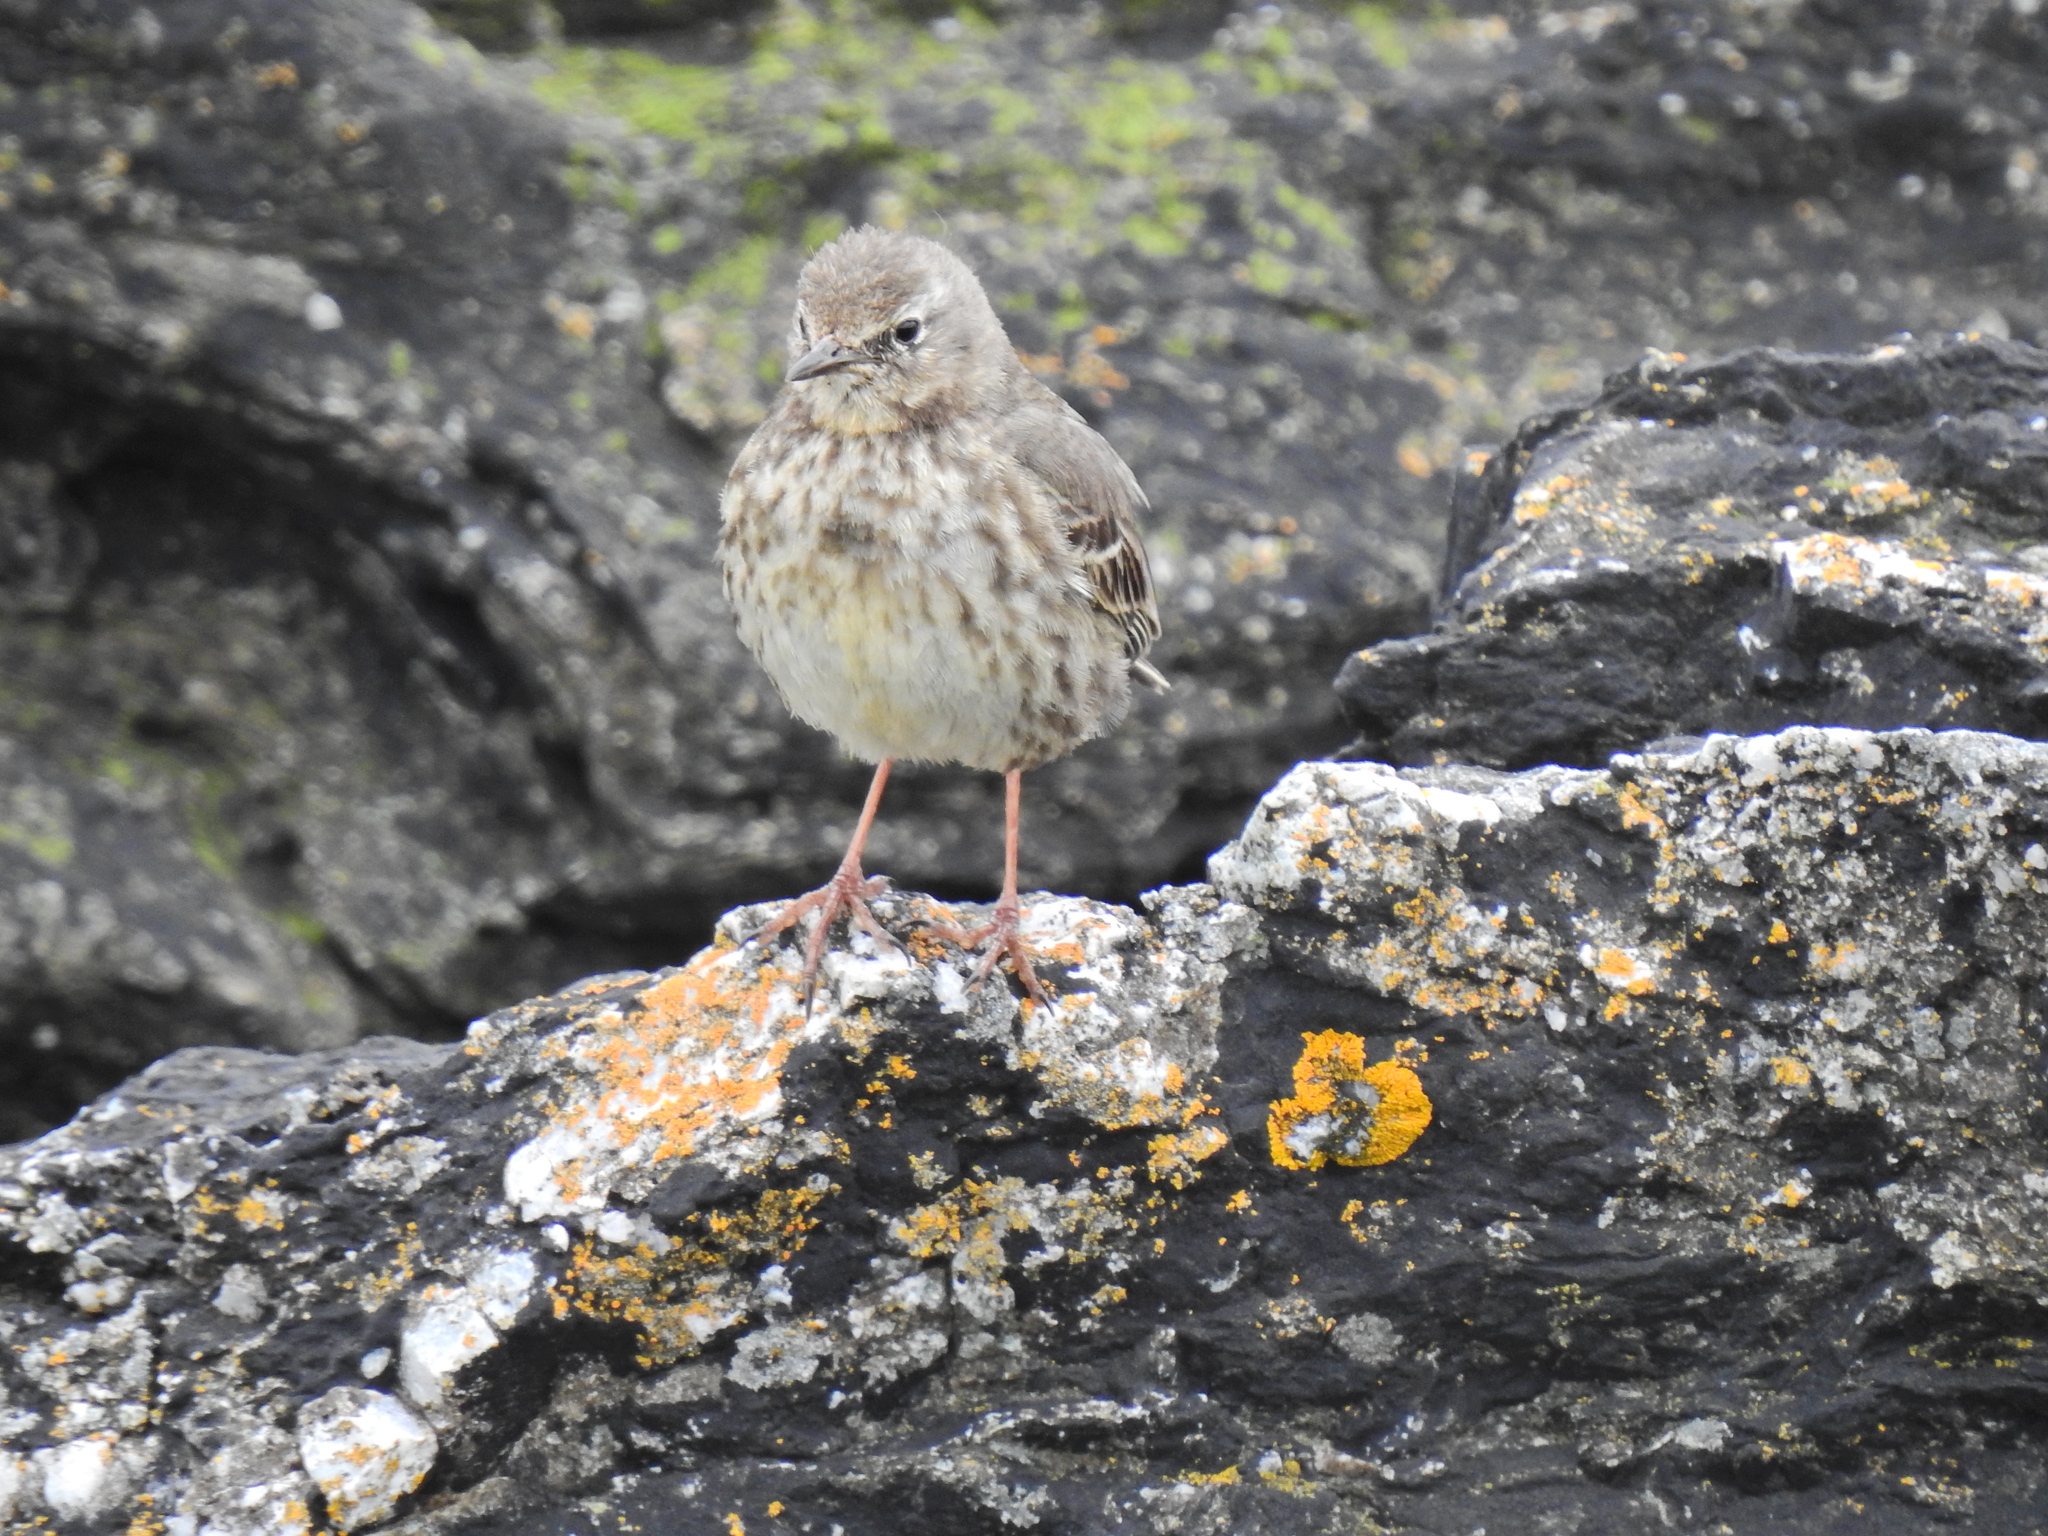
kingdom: Animalia
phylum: Chordata
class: Aves
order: Passeriformes
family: Motacillidae
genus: Anthus
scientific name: Anthus petrosus
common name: Eurasian rock pipit
